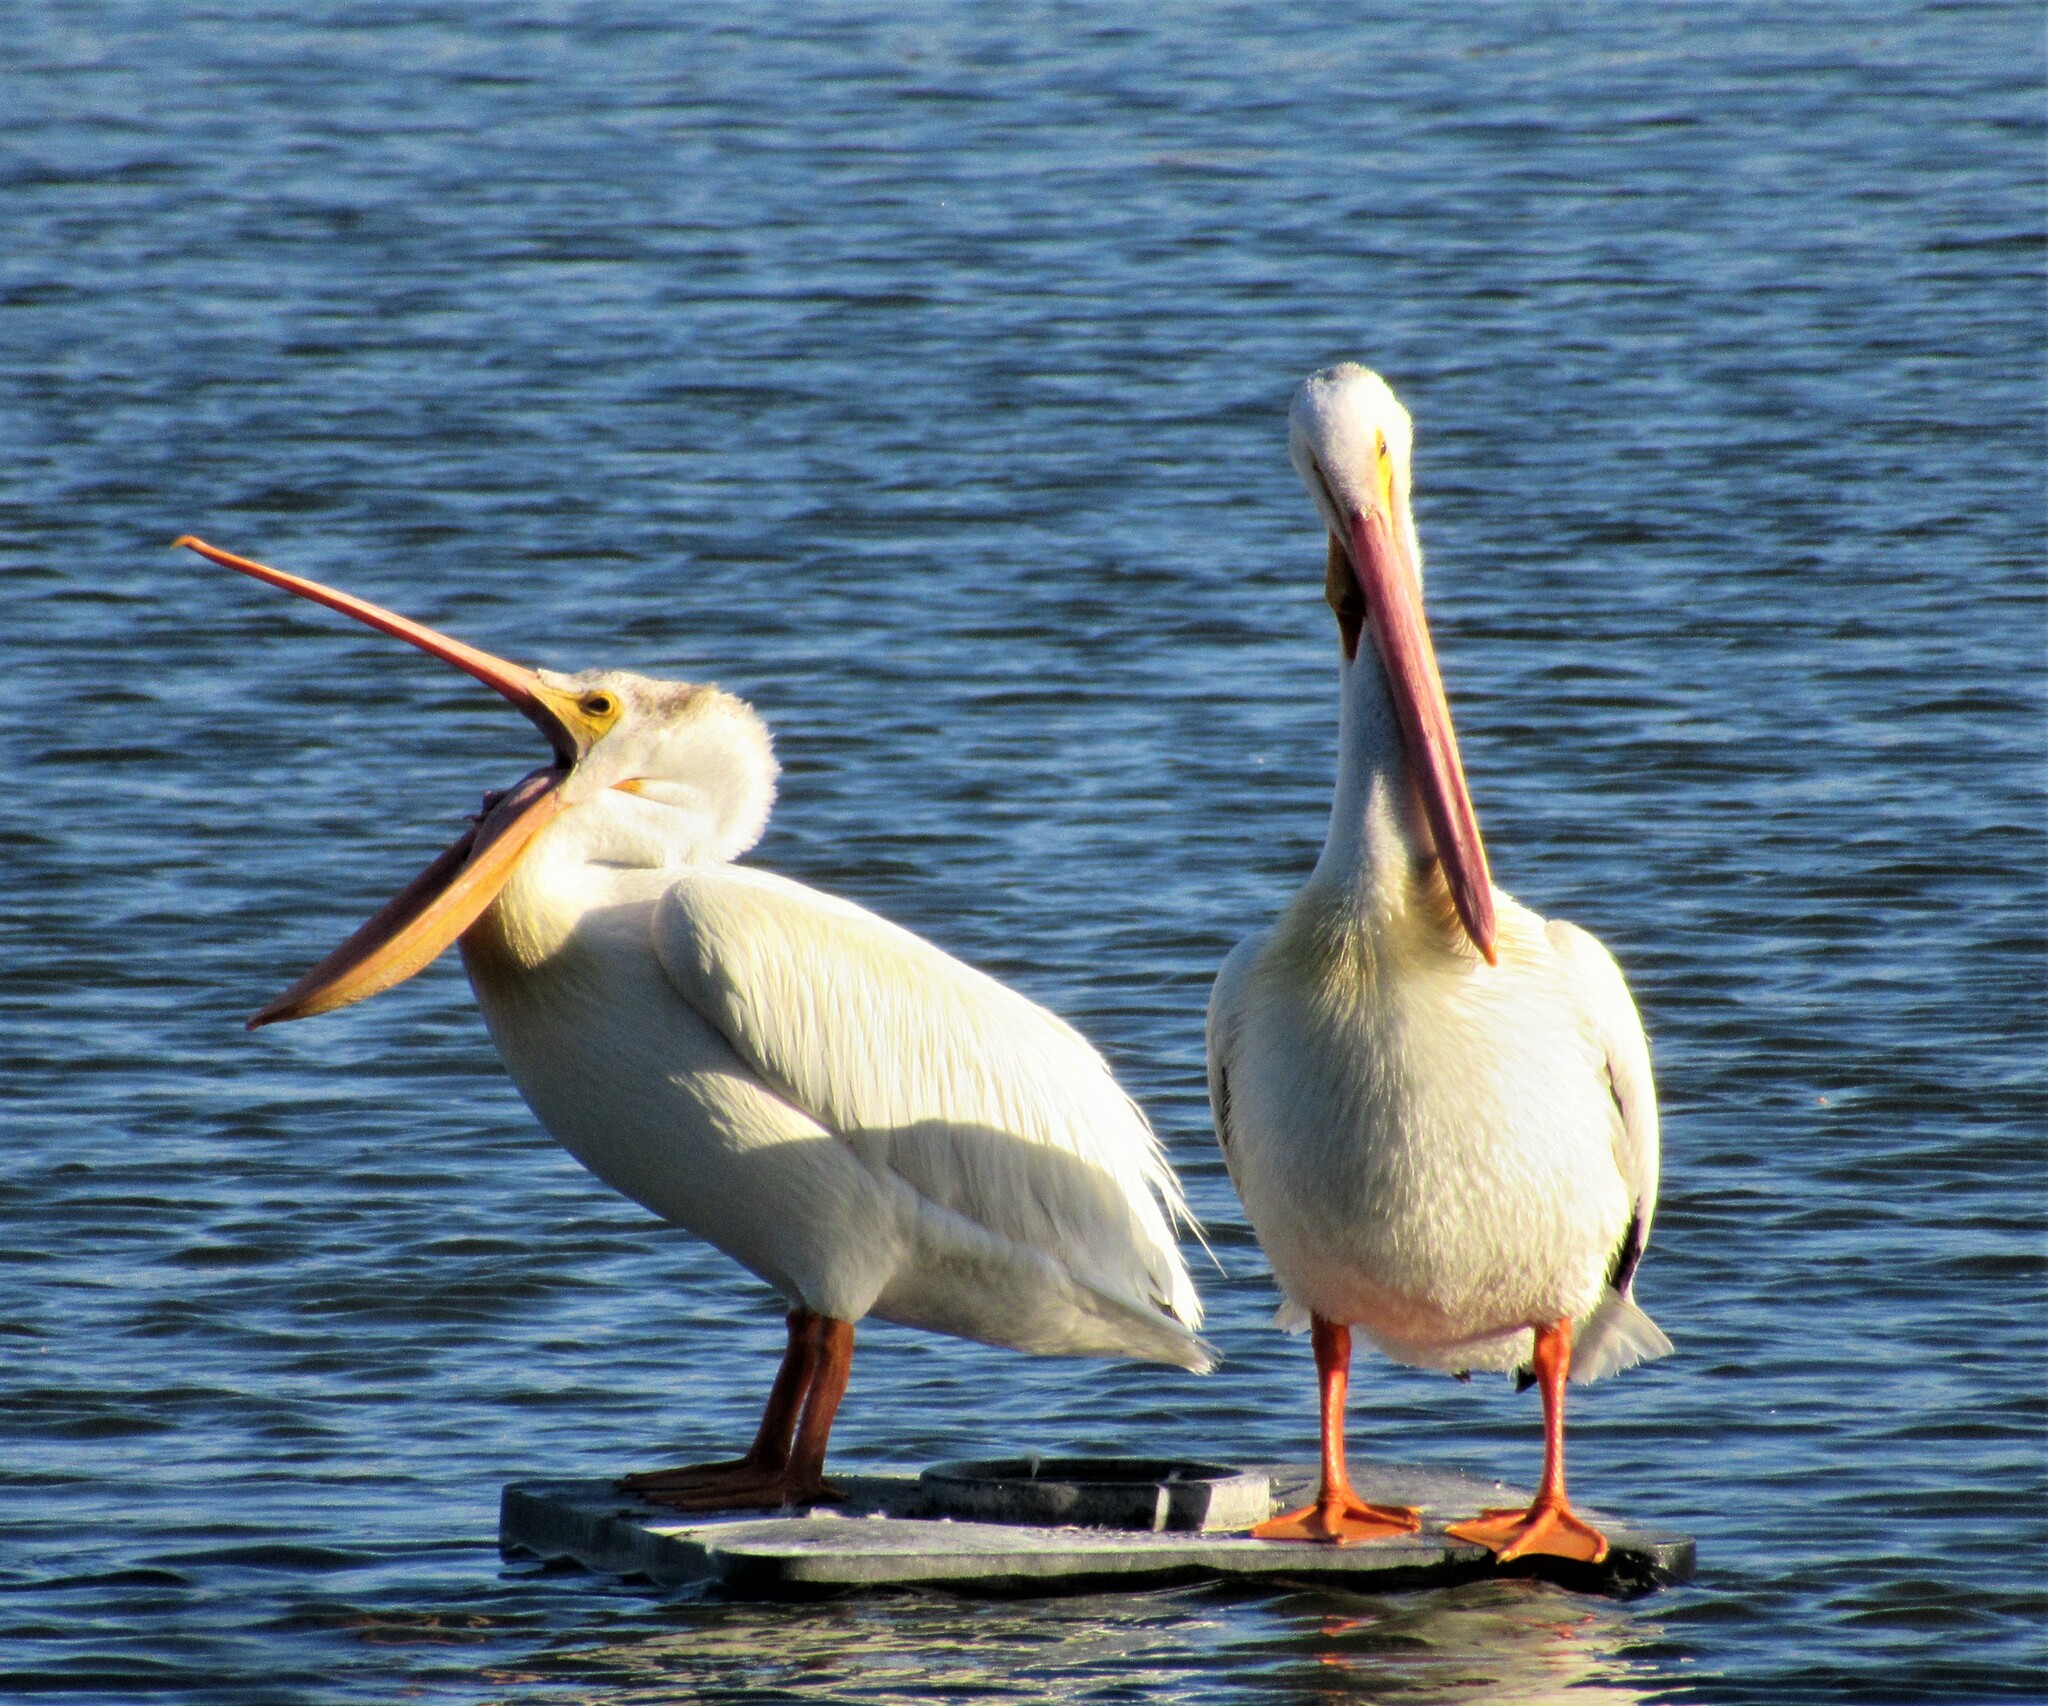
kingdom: Animalia
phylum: Chordata
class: Aves
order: Pelecaniformes
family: Pelecanidae
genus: Pelecanus
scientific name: Pelecanus erythrorhynchos
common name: American white pelican
